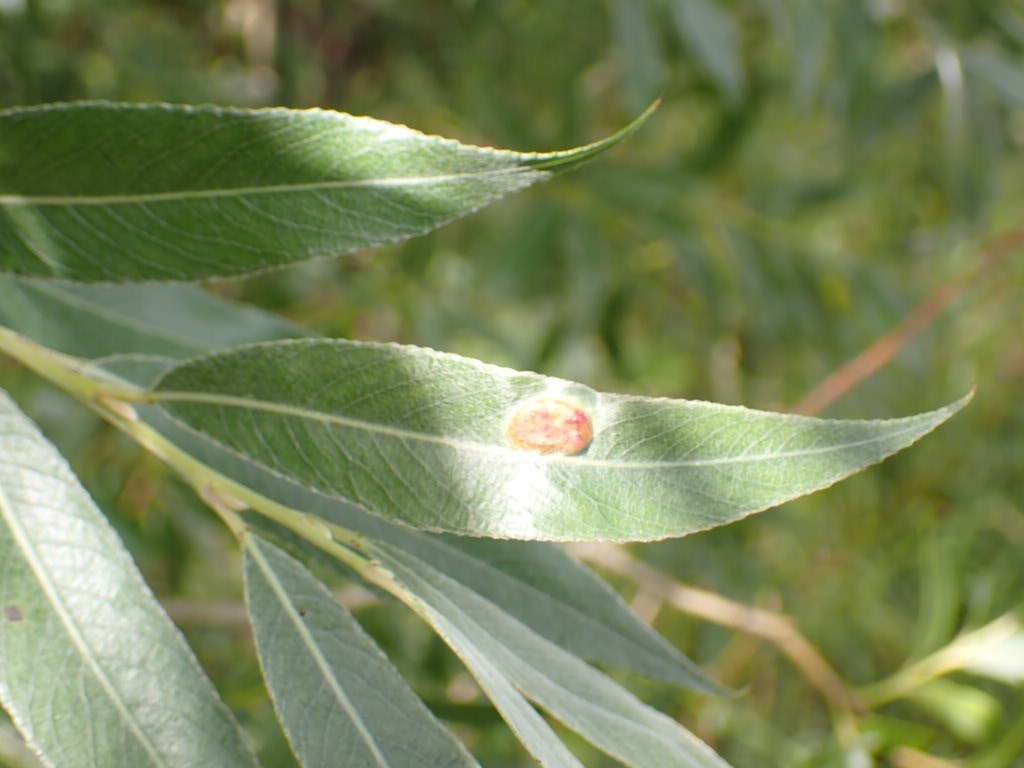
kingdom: Animalia
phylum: Arthropoda
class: Insecta
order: Hymenoptera
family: Tenthredinidae
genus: Pontania
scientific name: Pontania proxima
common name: Common sawfly
